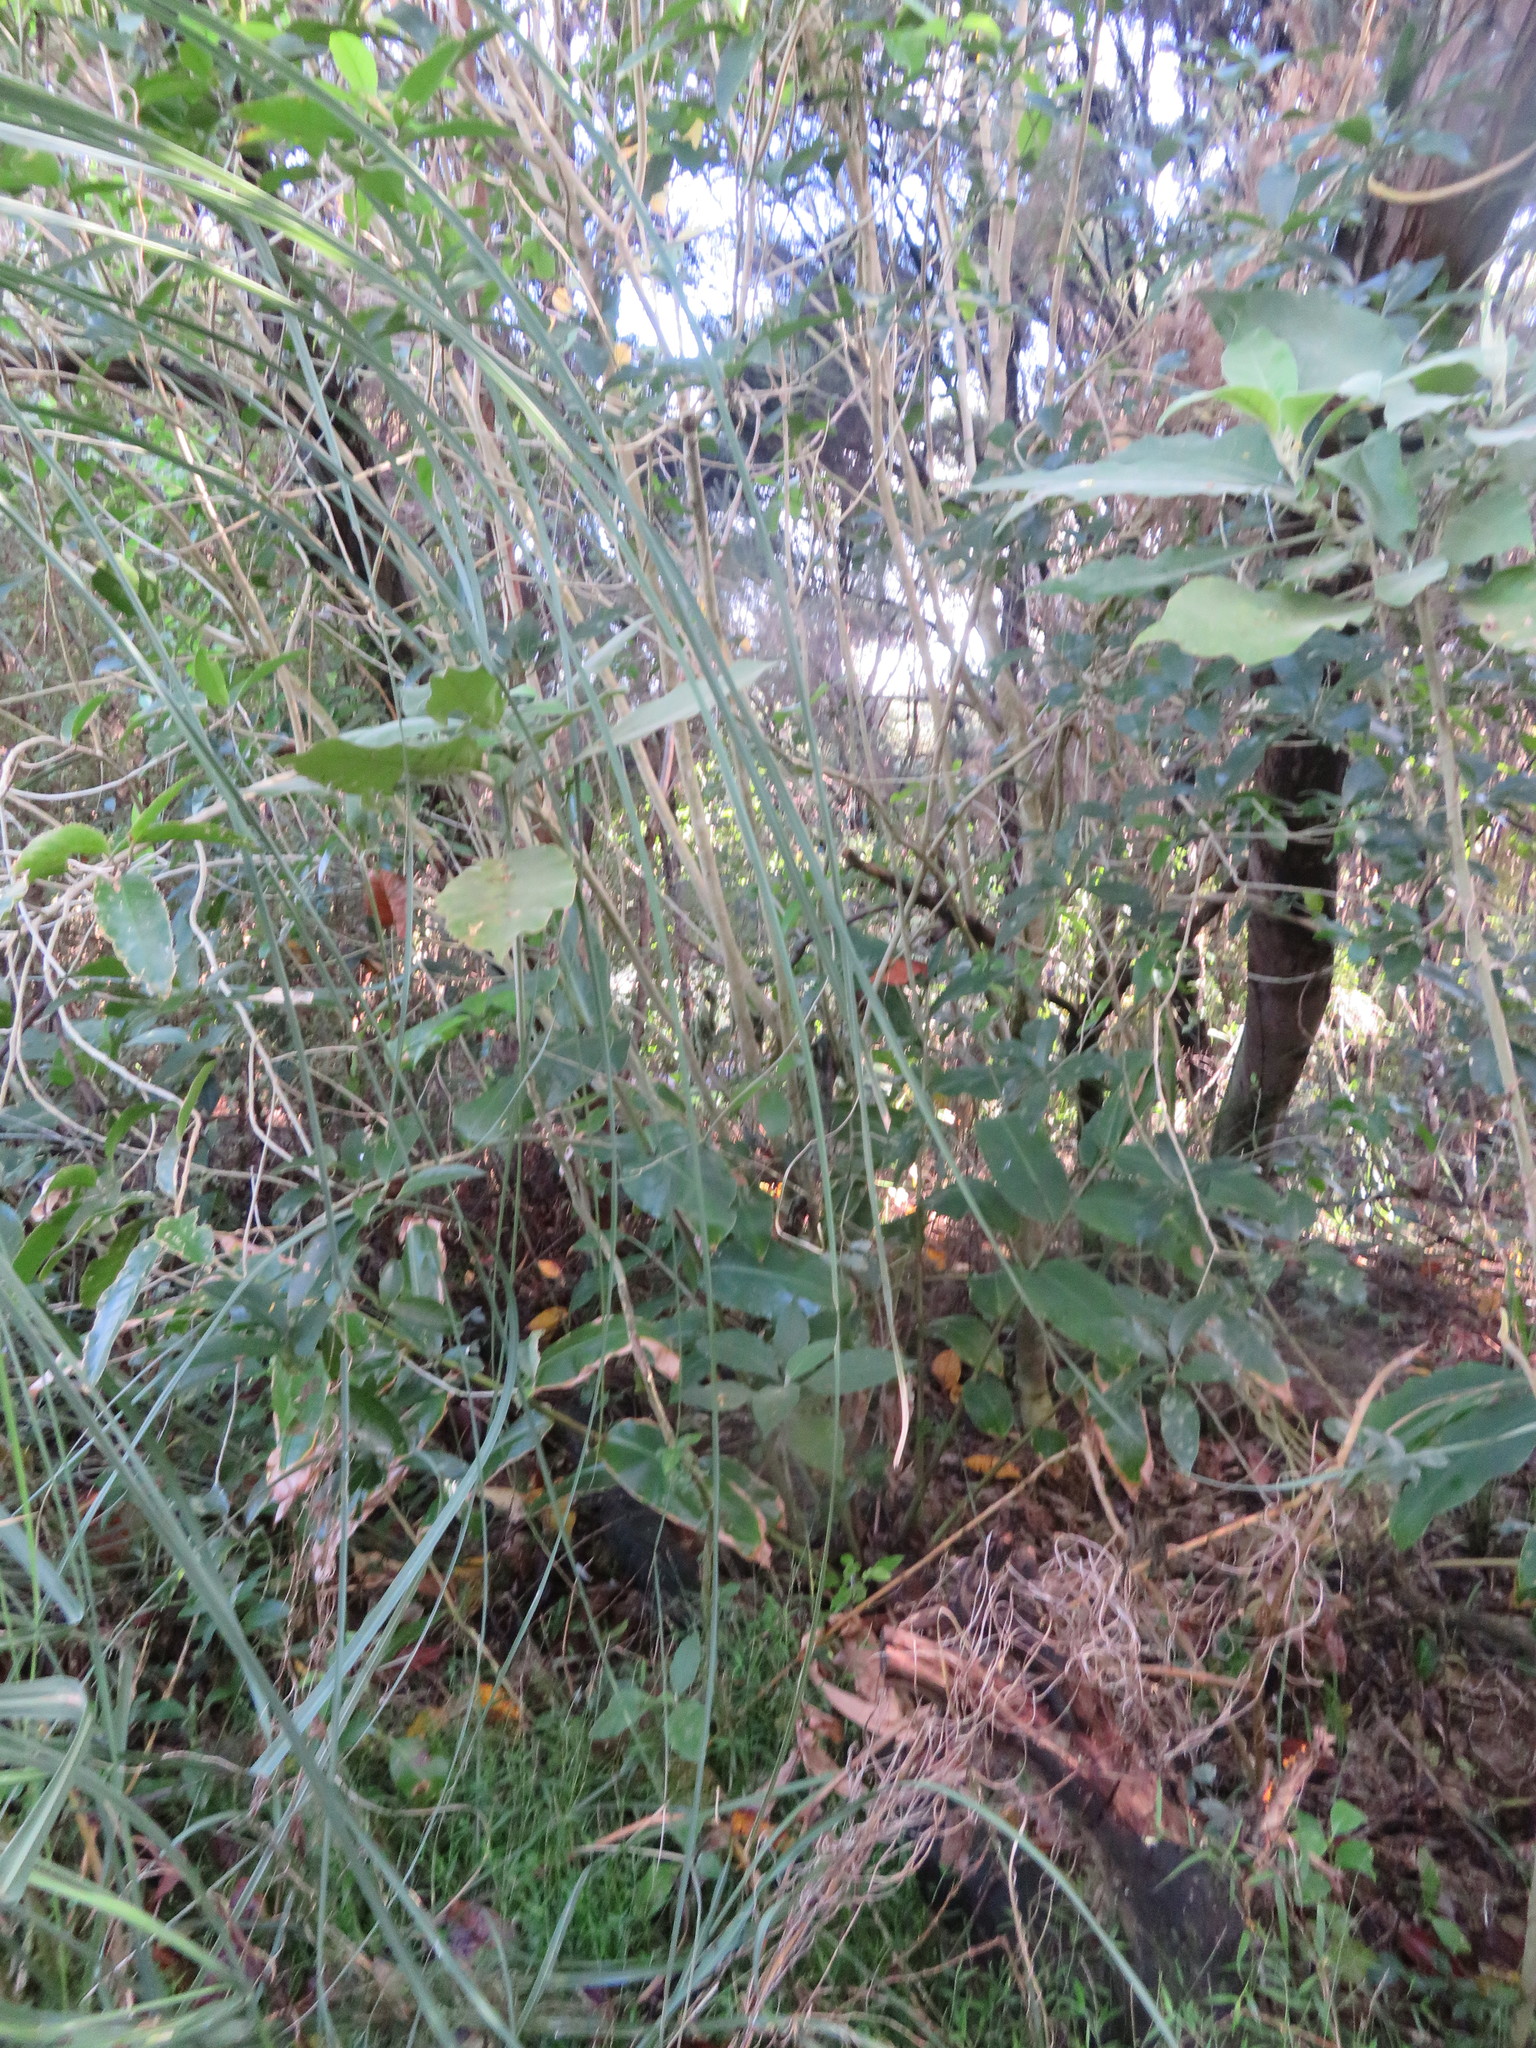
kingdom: Plantae
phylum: Tracheophyta
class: Liliopsida
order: Zingiberales
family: Zingiberaceae
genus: Hedychium
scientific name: Hedychium gardnerianum
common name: Himalayan ginger
